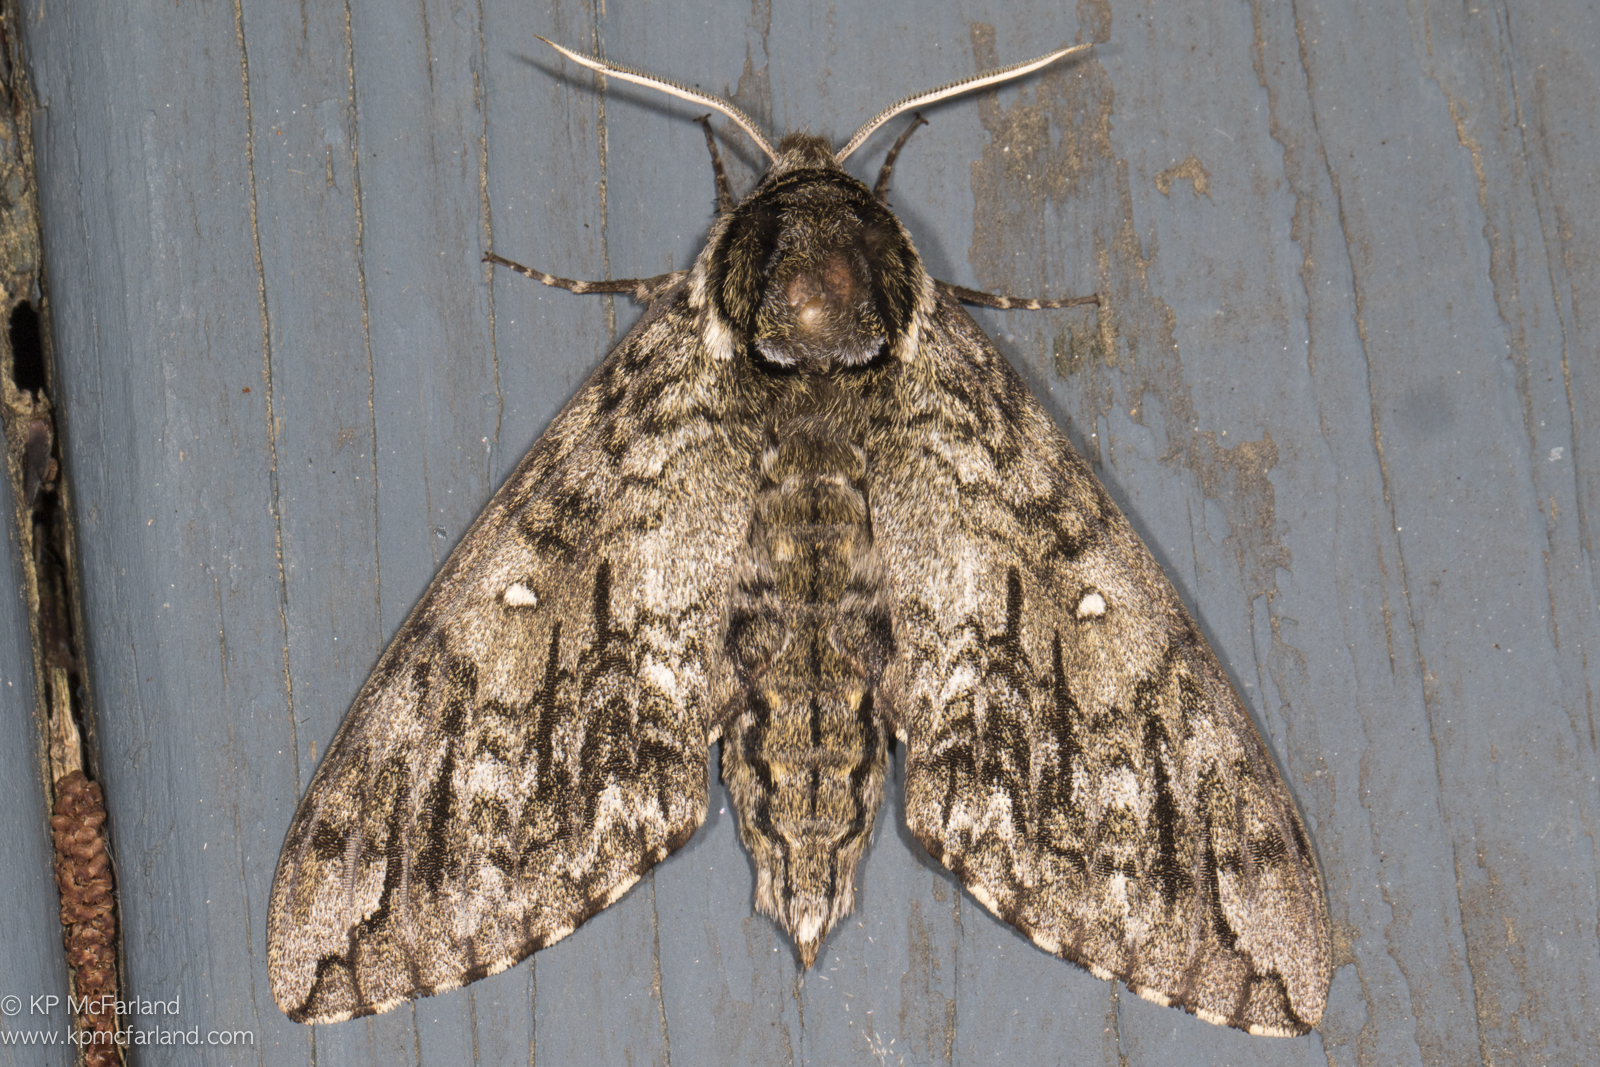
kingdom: Animalia
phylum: Arthropoda
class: Insecta
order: Lepidoptera
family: Sphingidae
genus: Ceratomia
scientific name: Ceratomia undulosa
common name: Waved sphinx
